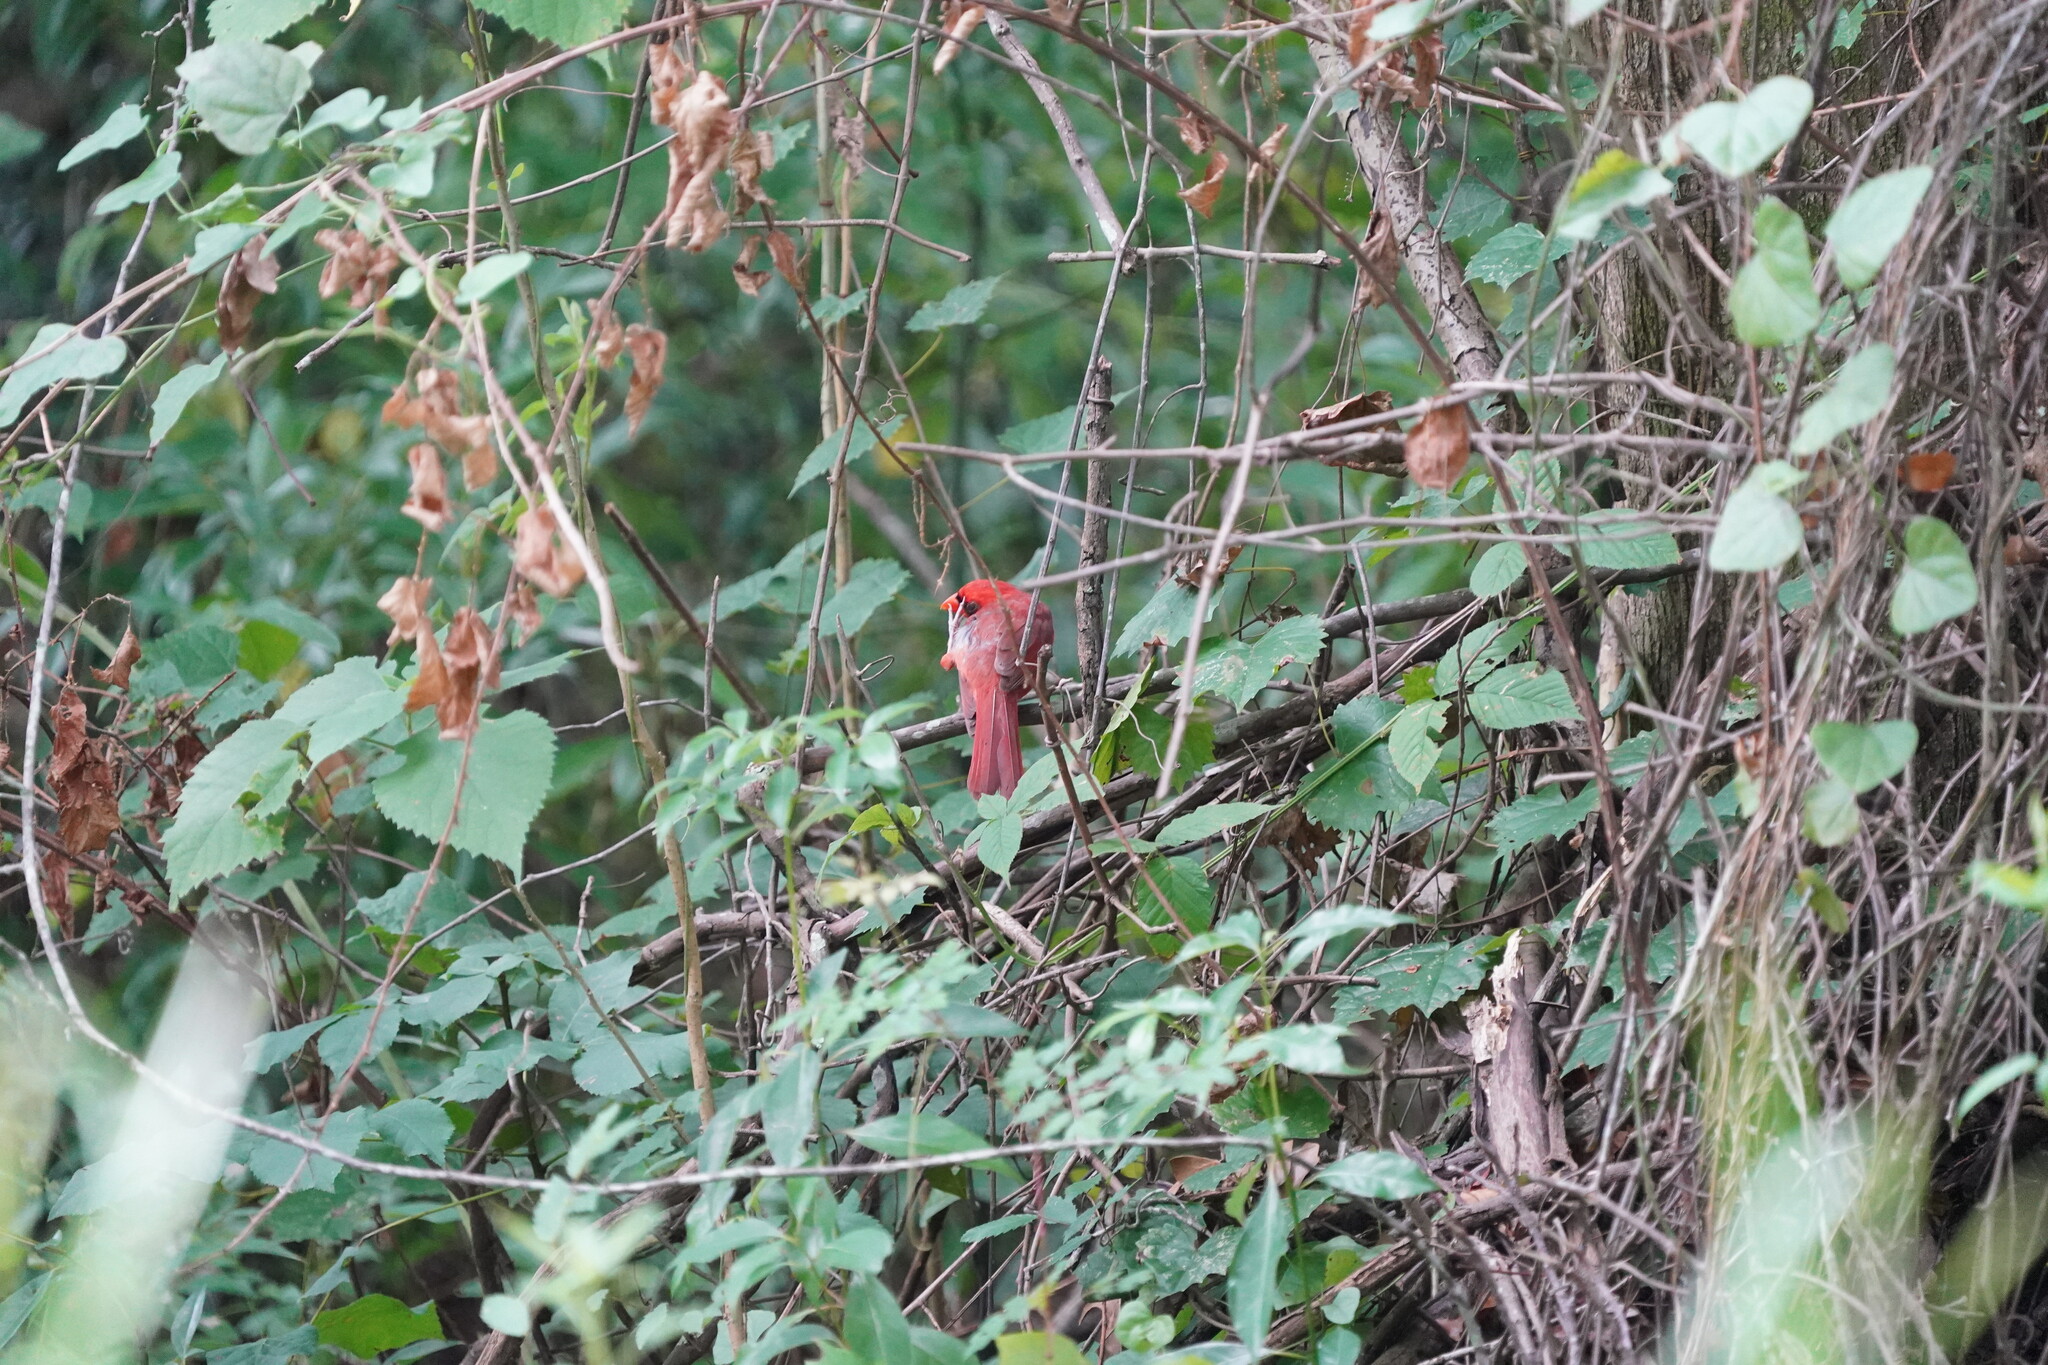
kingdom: Animalia
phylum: Chordata
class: Aves
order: Passeriformes
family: Cardinalidae
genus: Cardinalis
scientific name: Cardinalis cardinalis
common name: Northern cardinal
